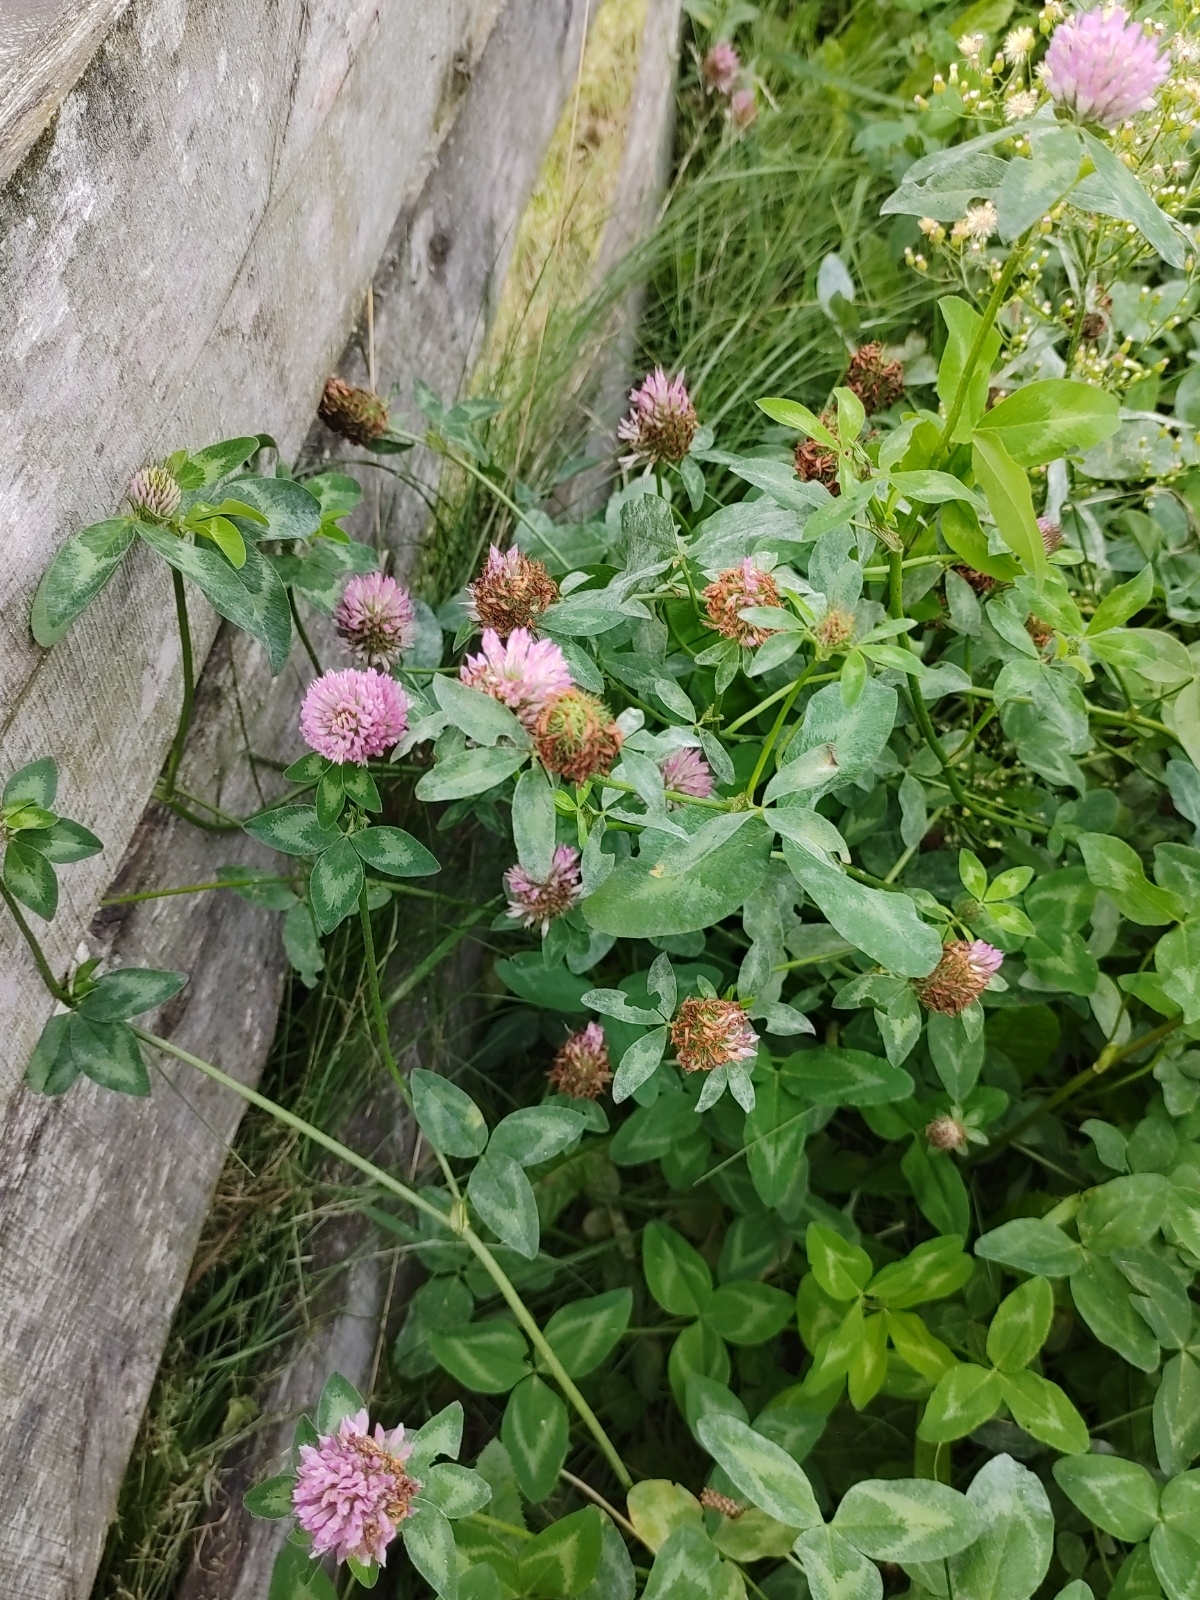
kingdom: Plantae
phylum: Tracheophyta
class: Magnoliopsida
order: Fabales
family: Fabaceae
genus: Trifolium
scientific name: Trifolium pratense
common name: Red clover
